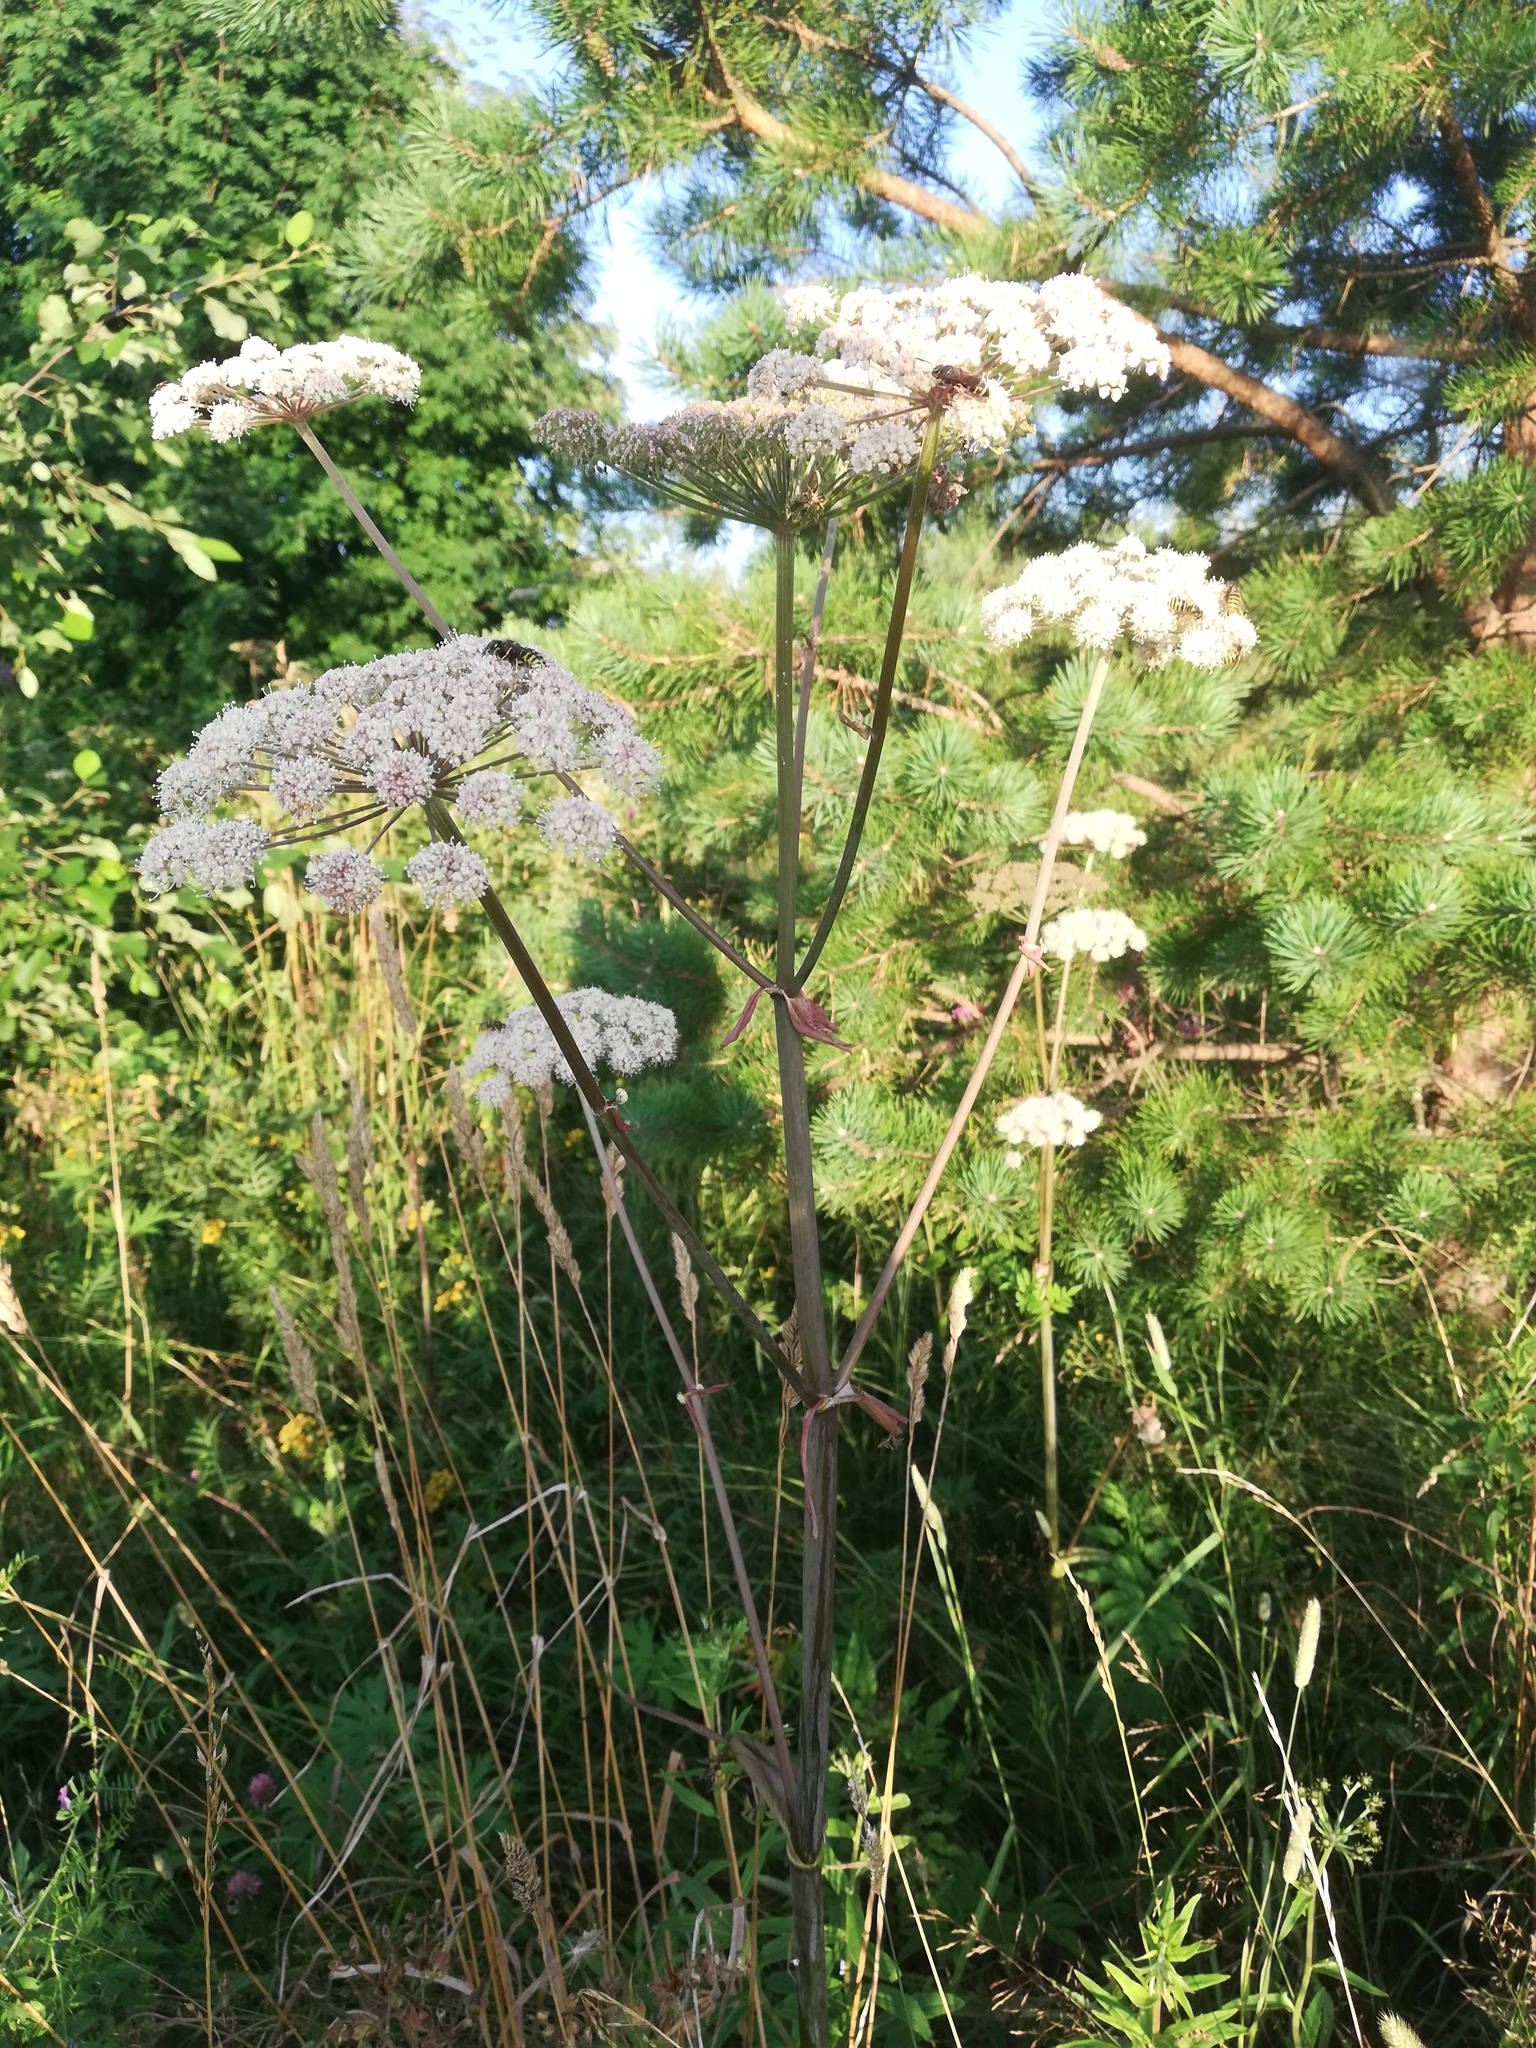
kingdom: Plantae
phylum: Tracheophyta
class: Magnoliopsida
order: Apiales
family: Apiaceae
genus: Angelica
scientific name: Angelica sylvestris
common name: Wild angelica
